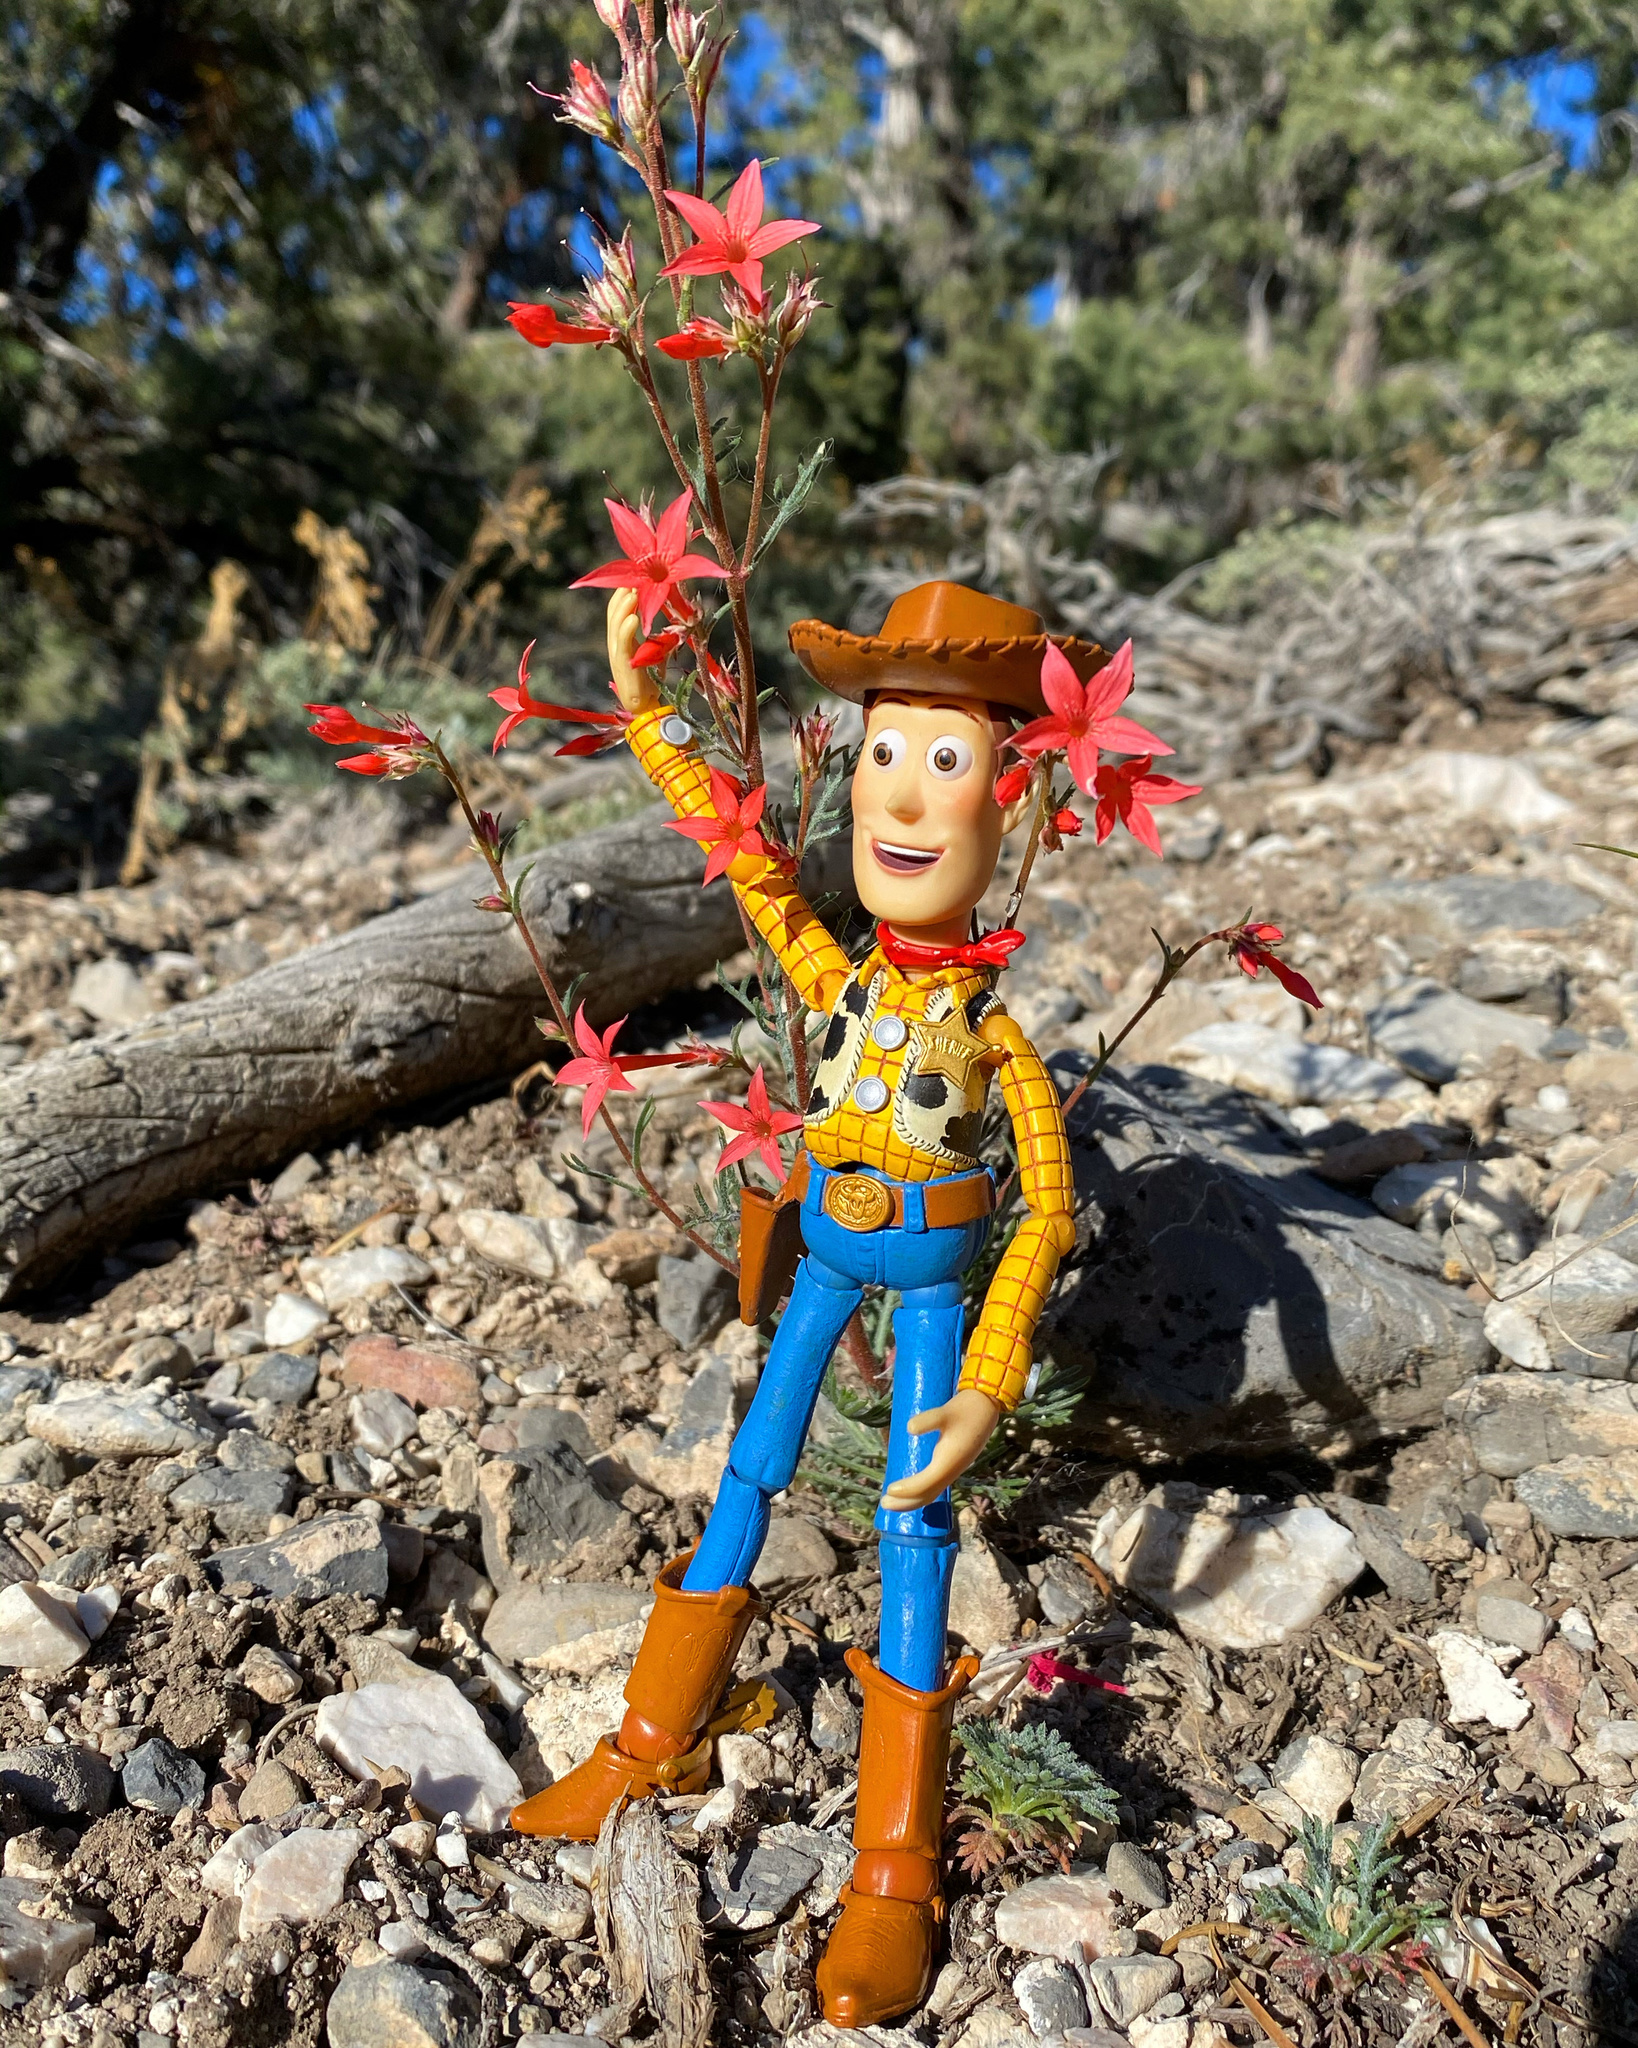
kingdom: Plantae
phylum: Tracheophyta
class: Magnoliopsida
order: Ericales
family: Polemoniaceae
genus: Ipomopsis
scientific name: Ipomopsis arizonica
